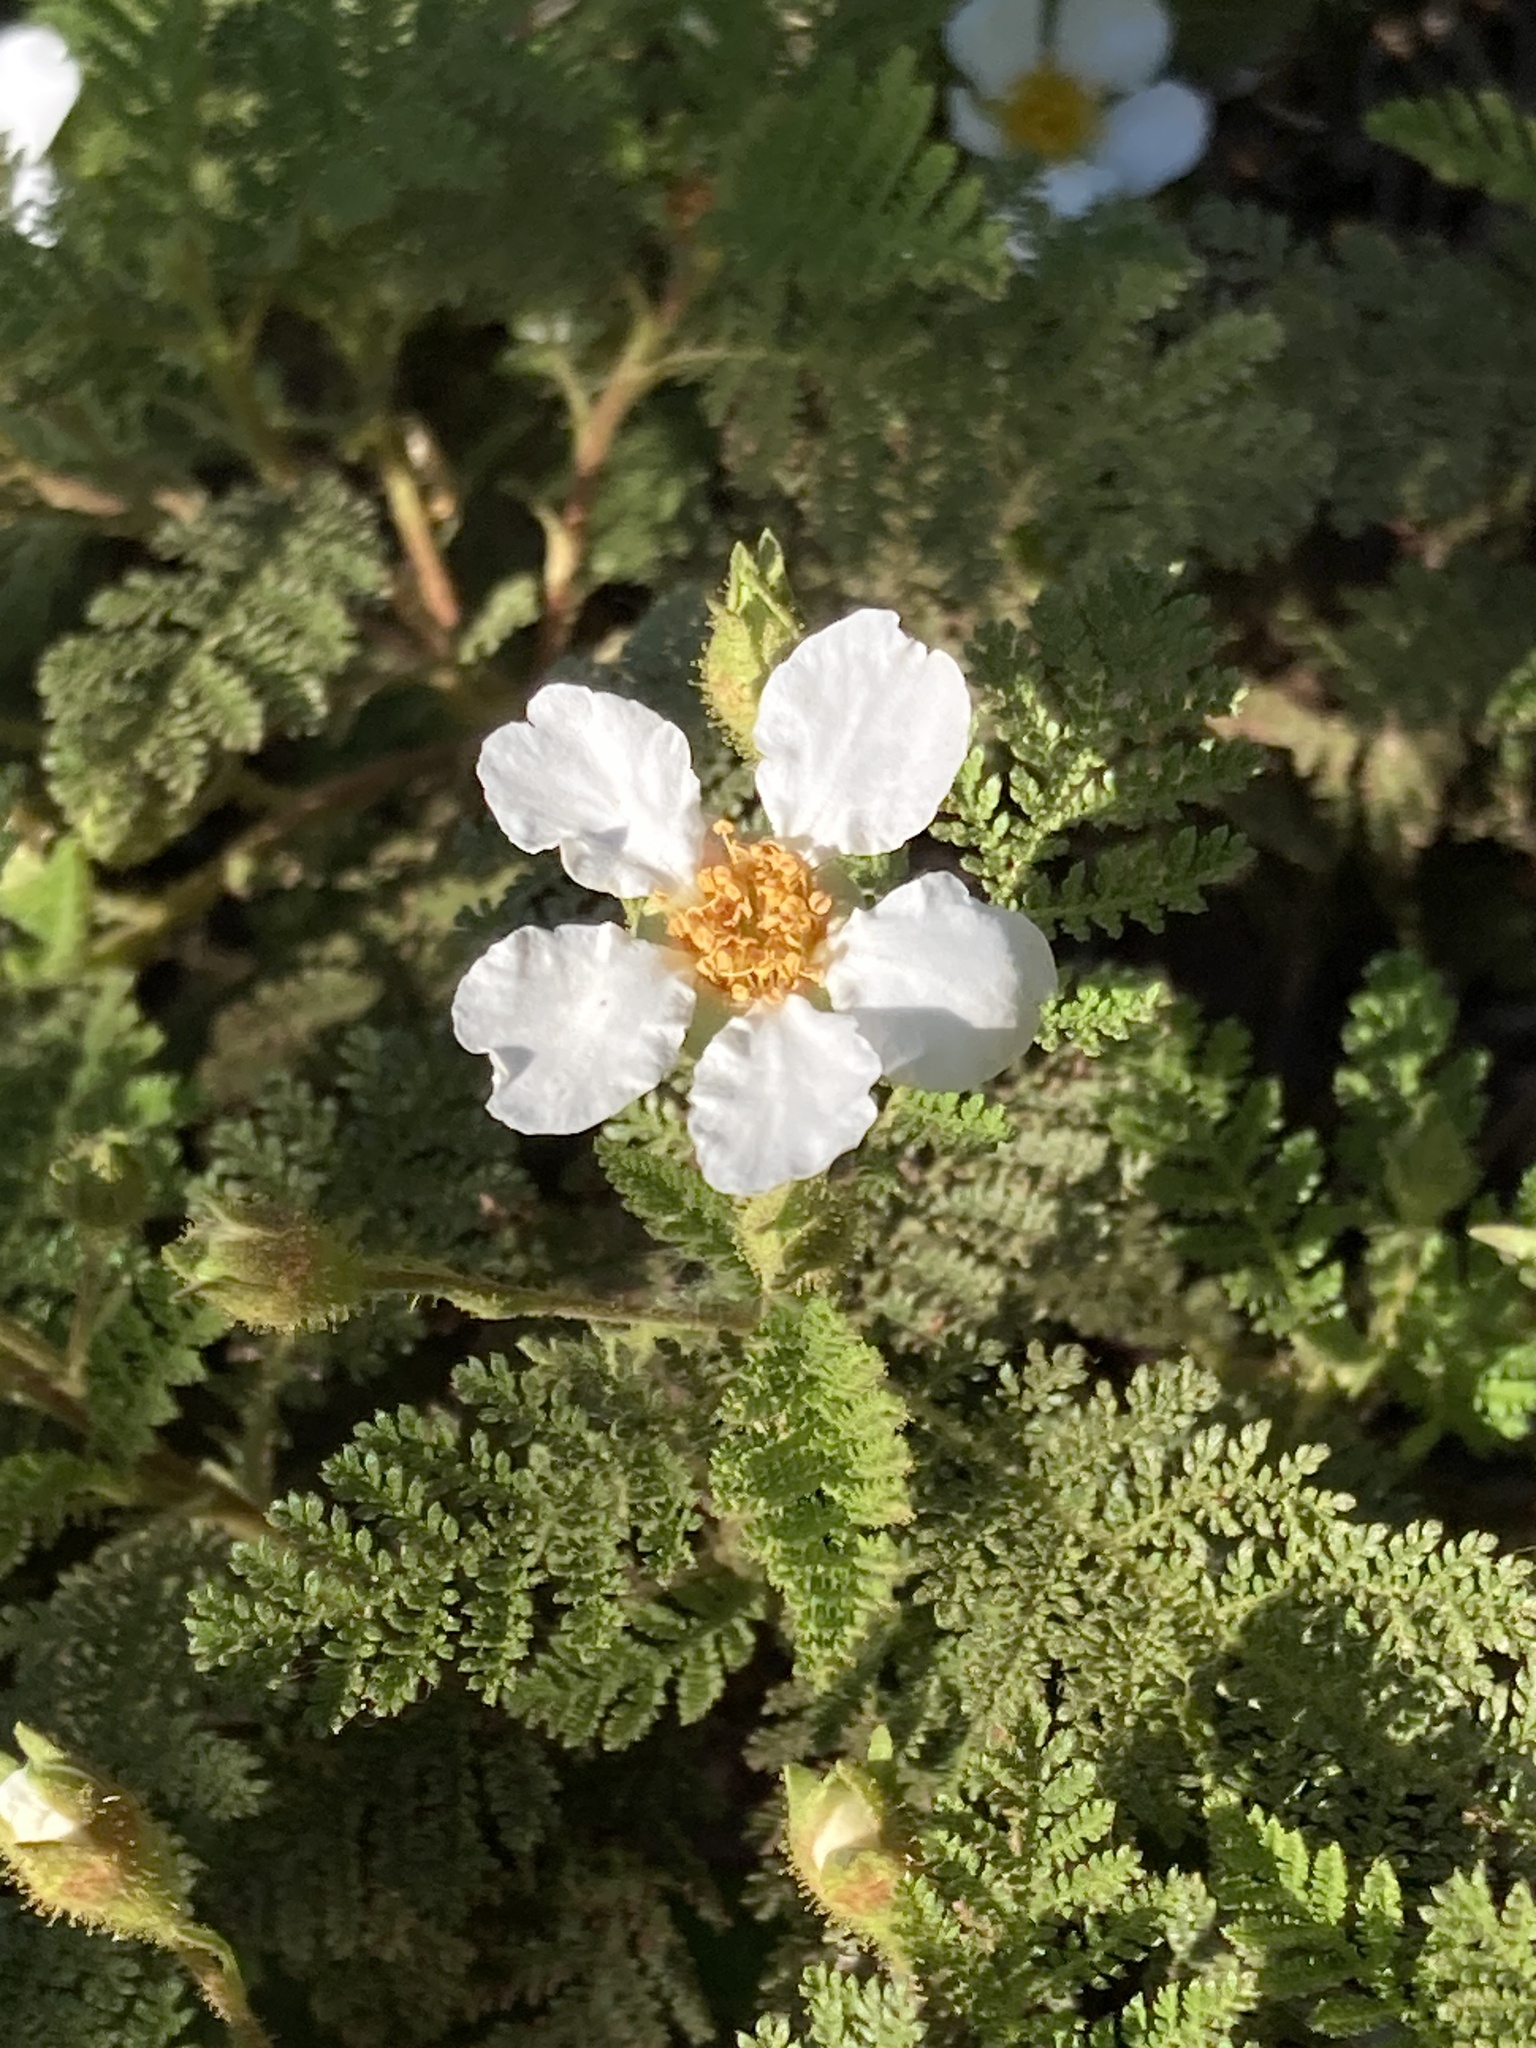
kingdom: Plantae
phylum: Tracheophyta
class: Magnoliopsida
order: Rosales
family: Rosaceae
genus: Chamaebatia
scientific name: Chamaebatia foliolosa
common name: Mountain misery
